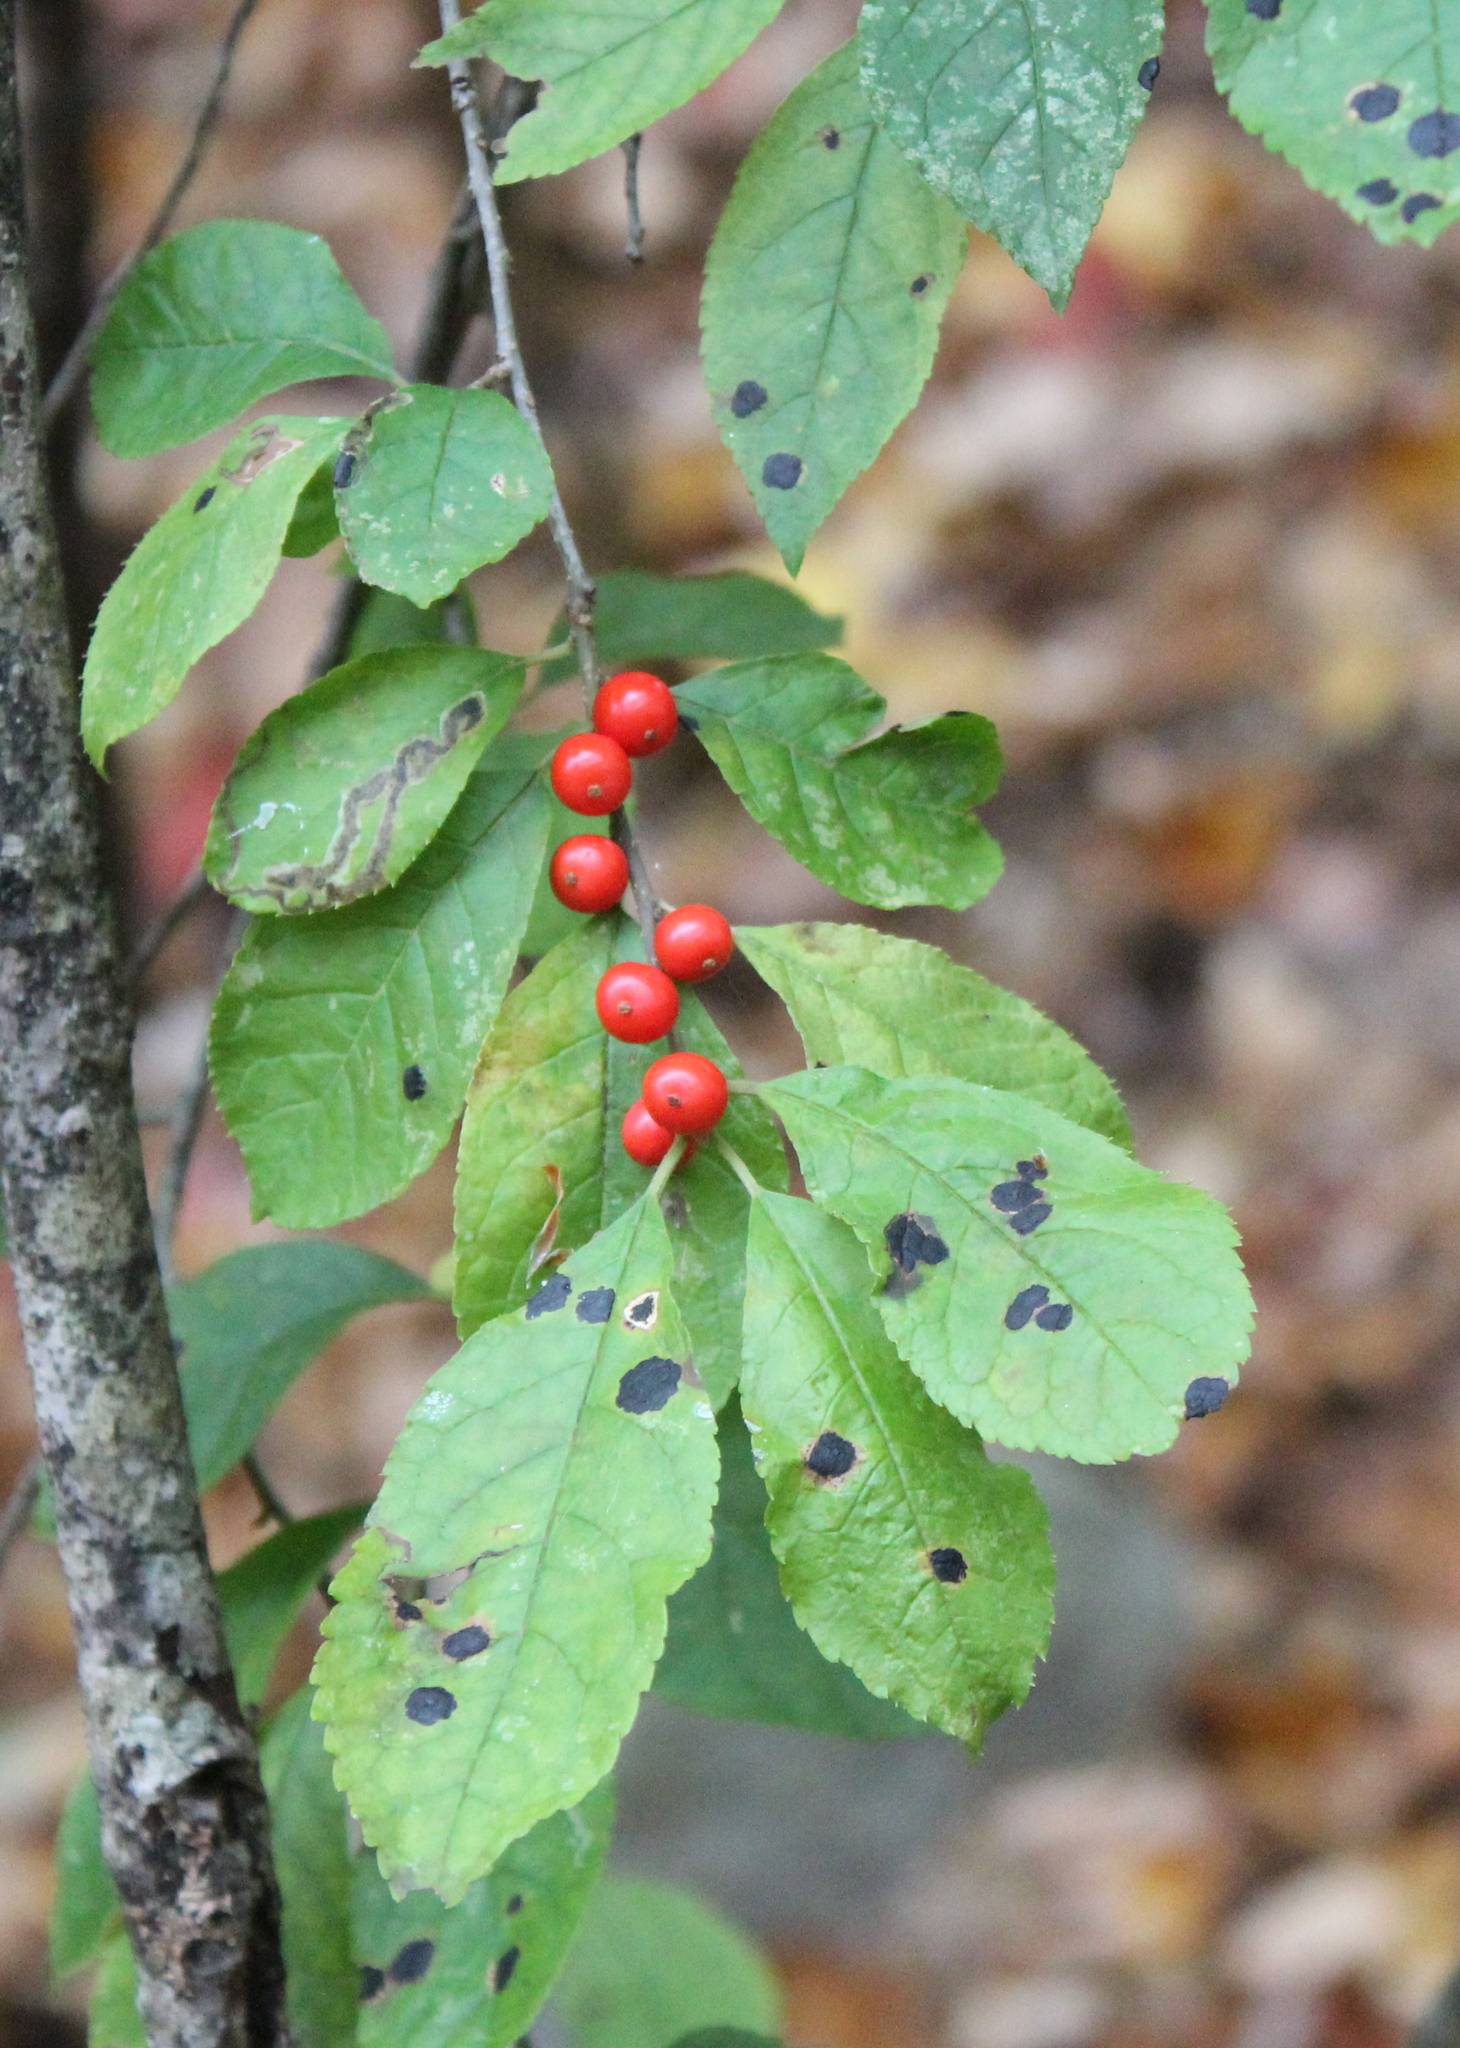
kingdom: Plantae
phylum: Tracheophyta
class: Magnoliopsida
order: Aquifoliales
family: Aquifoliaceae
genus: Ilex
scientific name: Ilex verticillata
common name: Virginia winterberry
